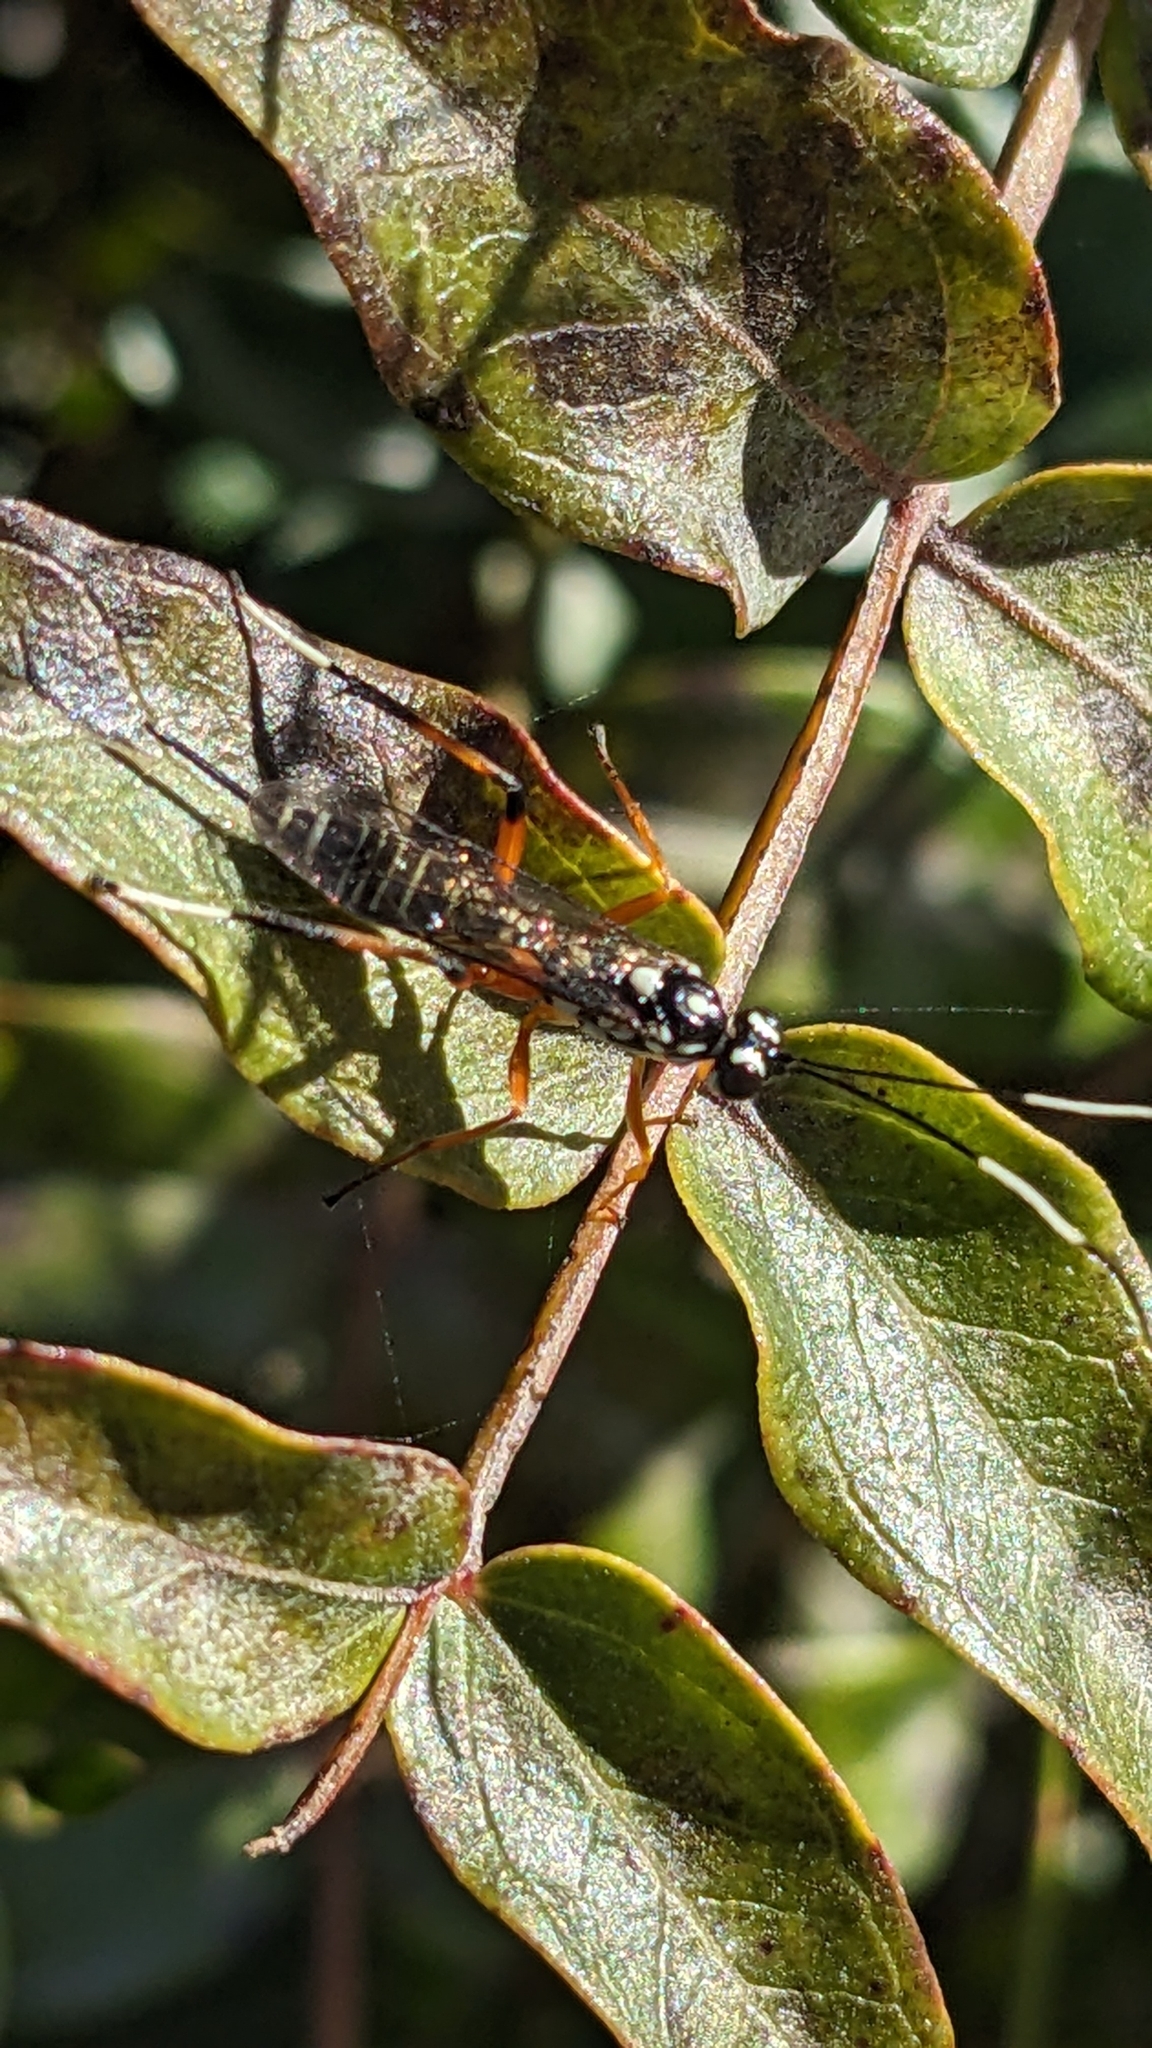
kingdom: Animalia
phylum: Arthropoda
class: Insecta
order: Hymenoptera
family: Ichneumonidae
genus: Xanthocryptus
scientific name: Xanthocryptus novozealandicus
